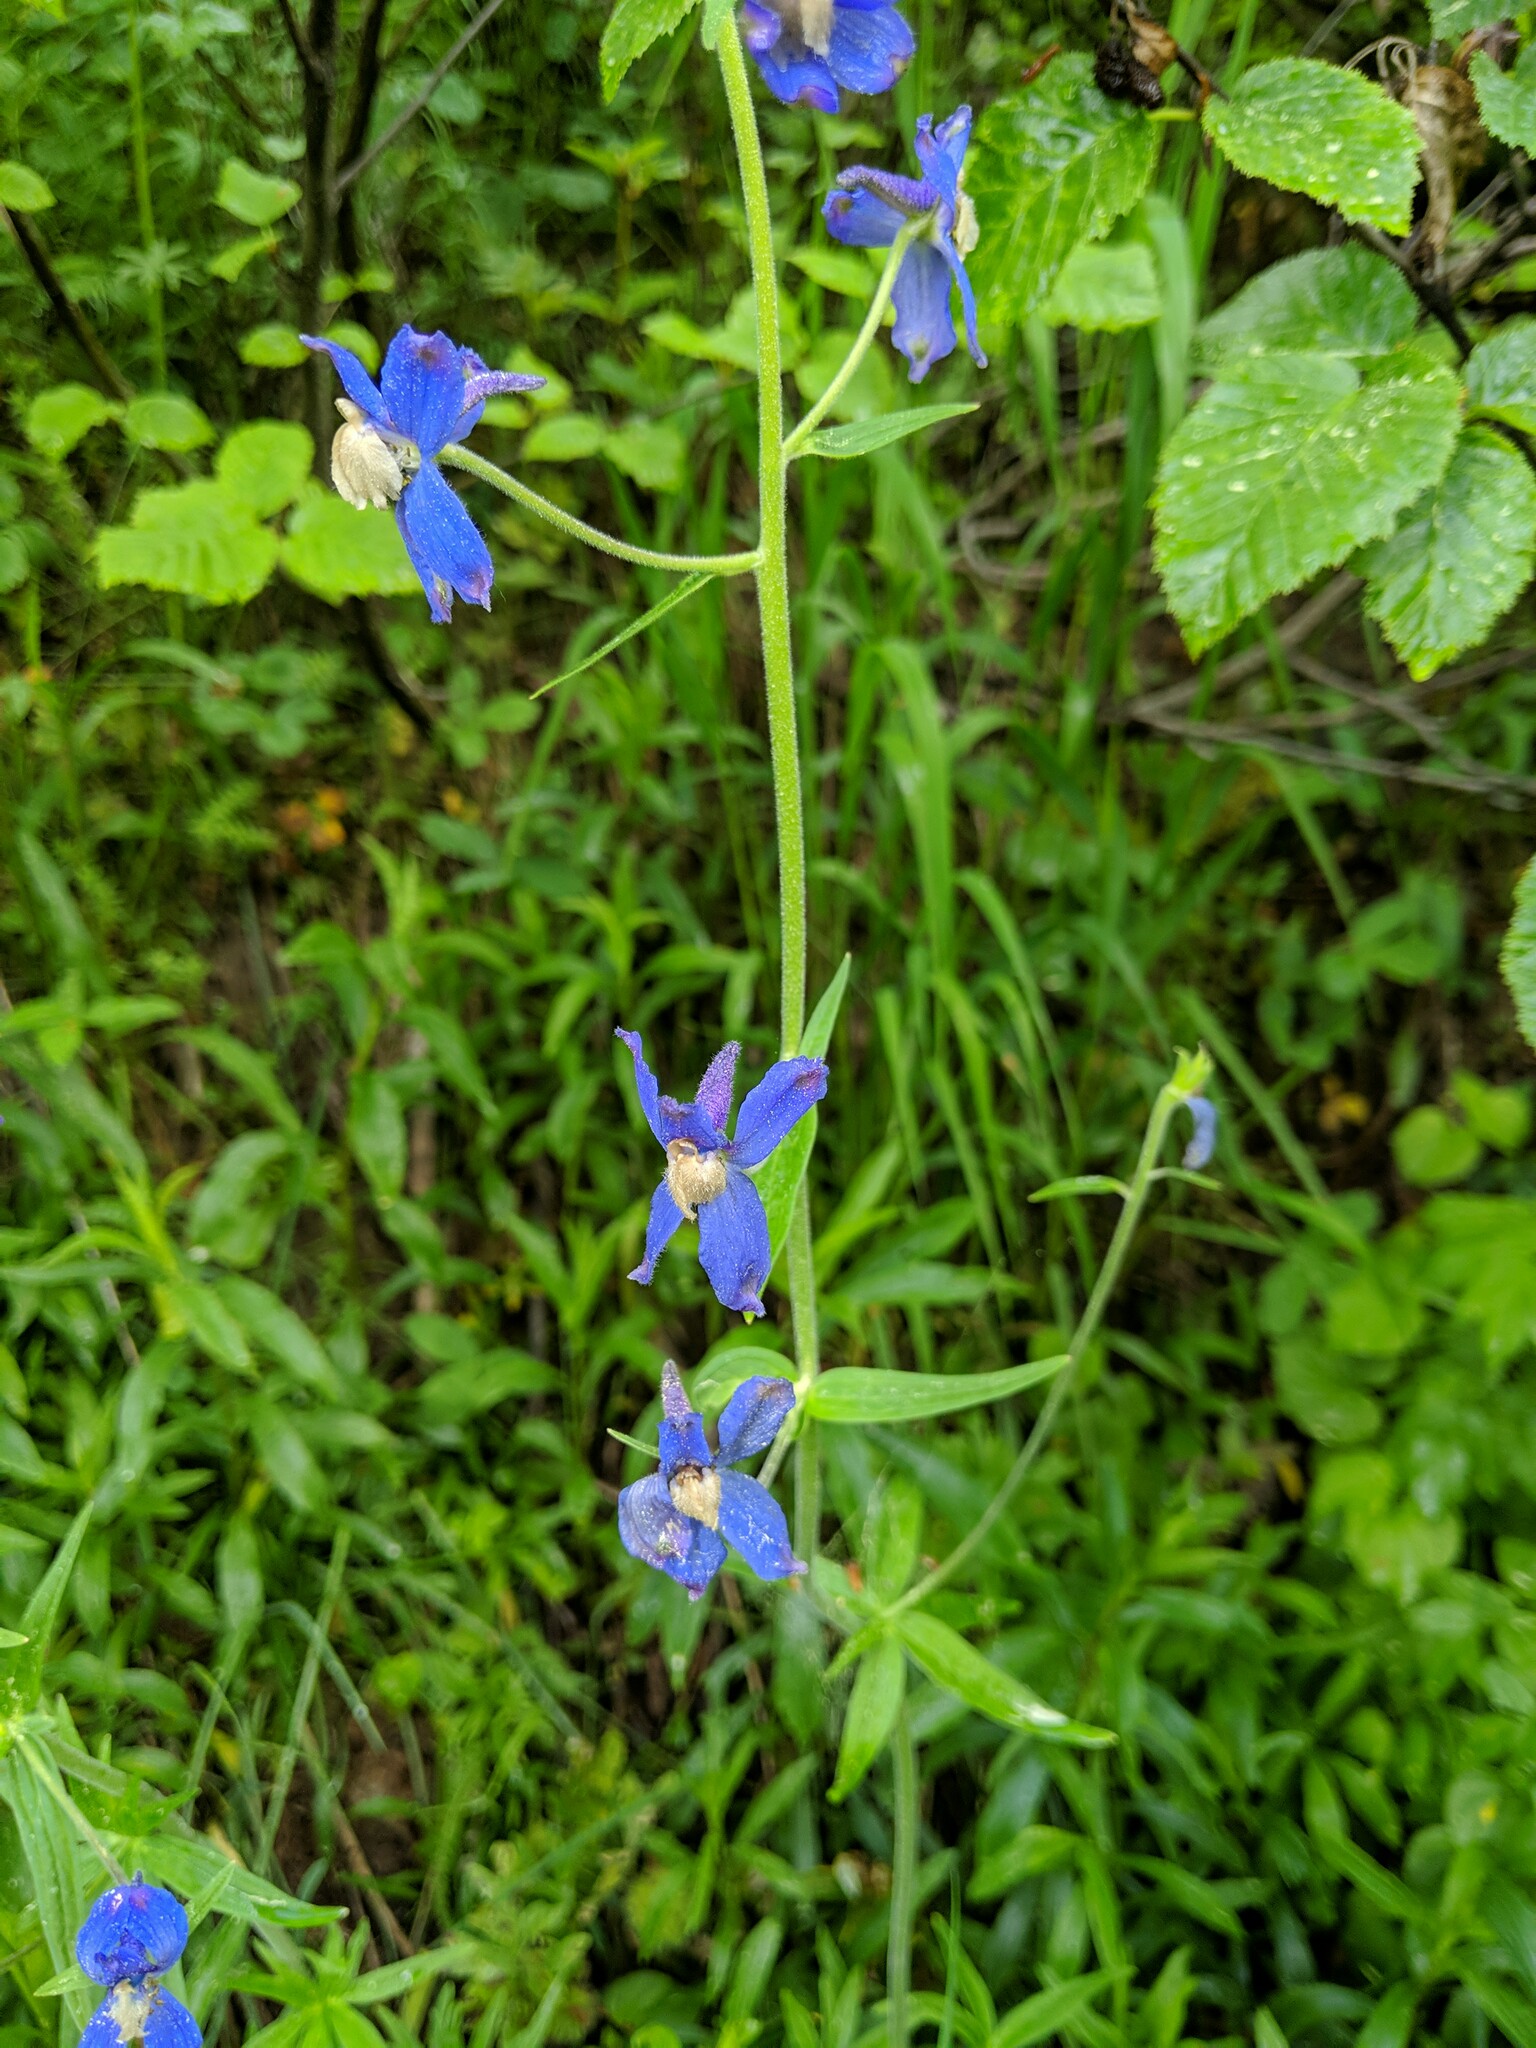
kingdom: Plantae
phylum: Tracheophyta
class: Magnoliopsida
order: Ranunculales
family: Ranunculaceae
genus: Delphinium
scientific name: Delphinium sutherlandii
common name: Sutherland's larkspur
